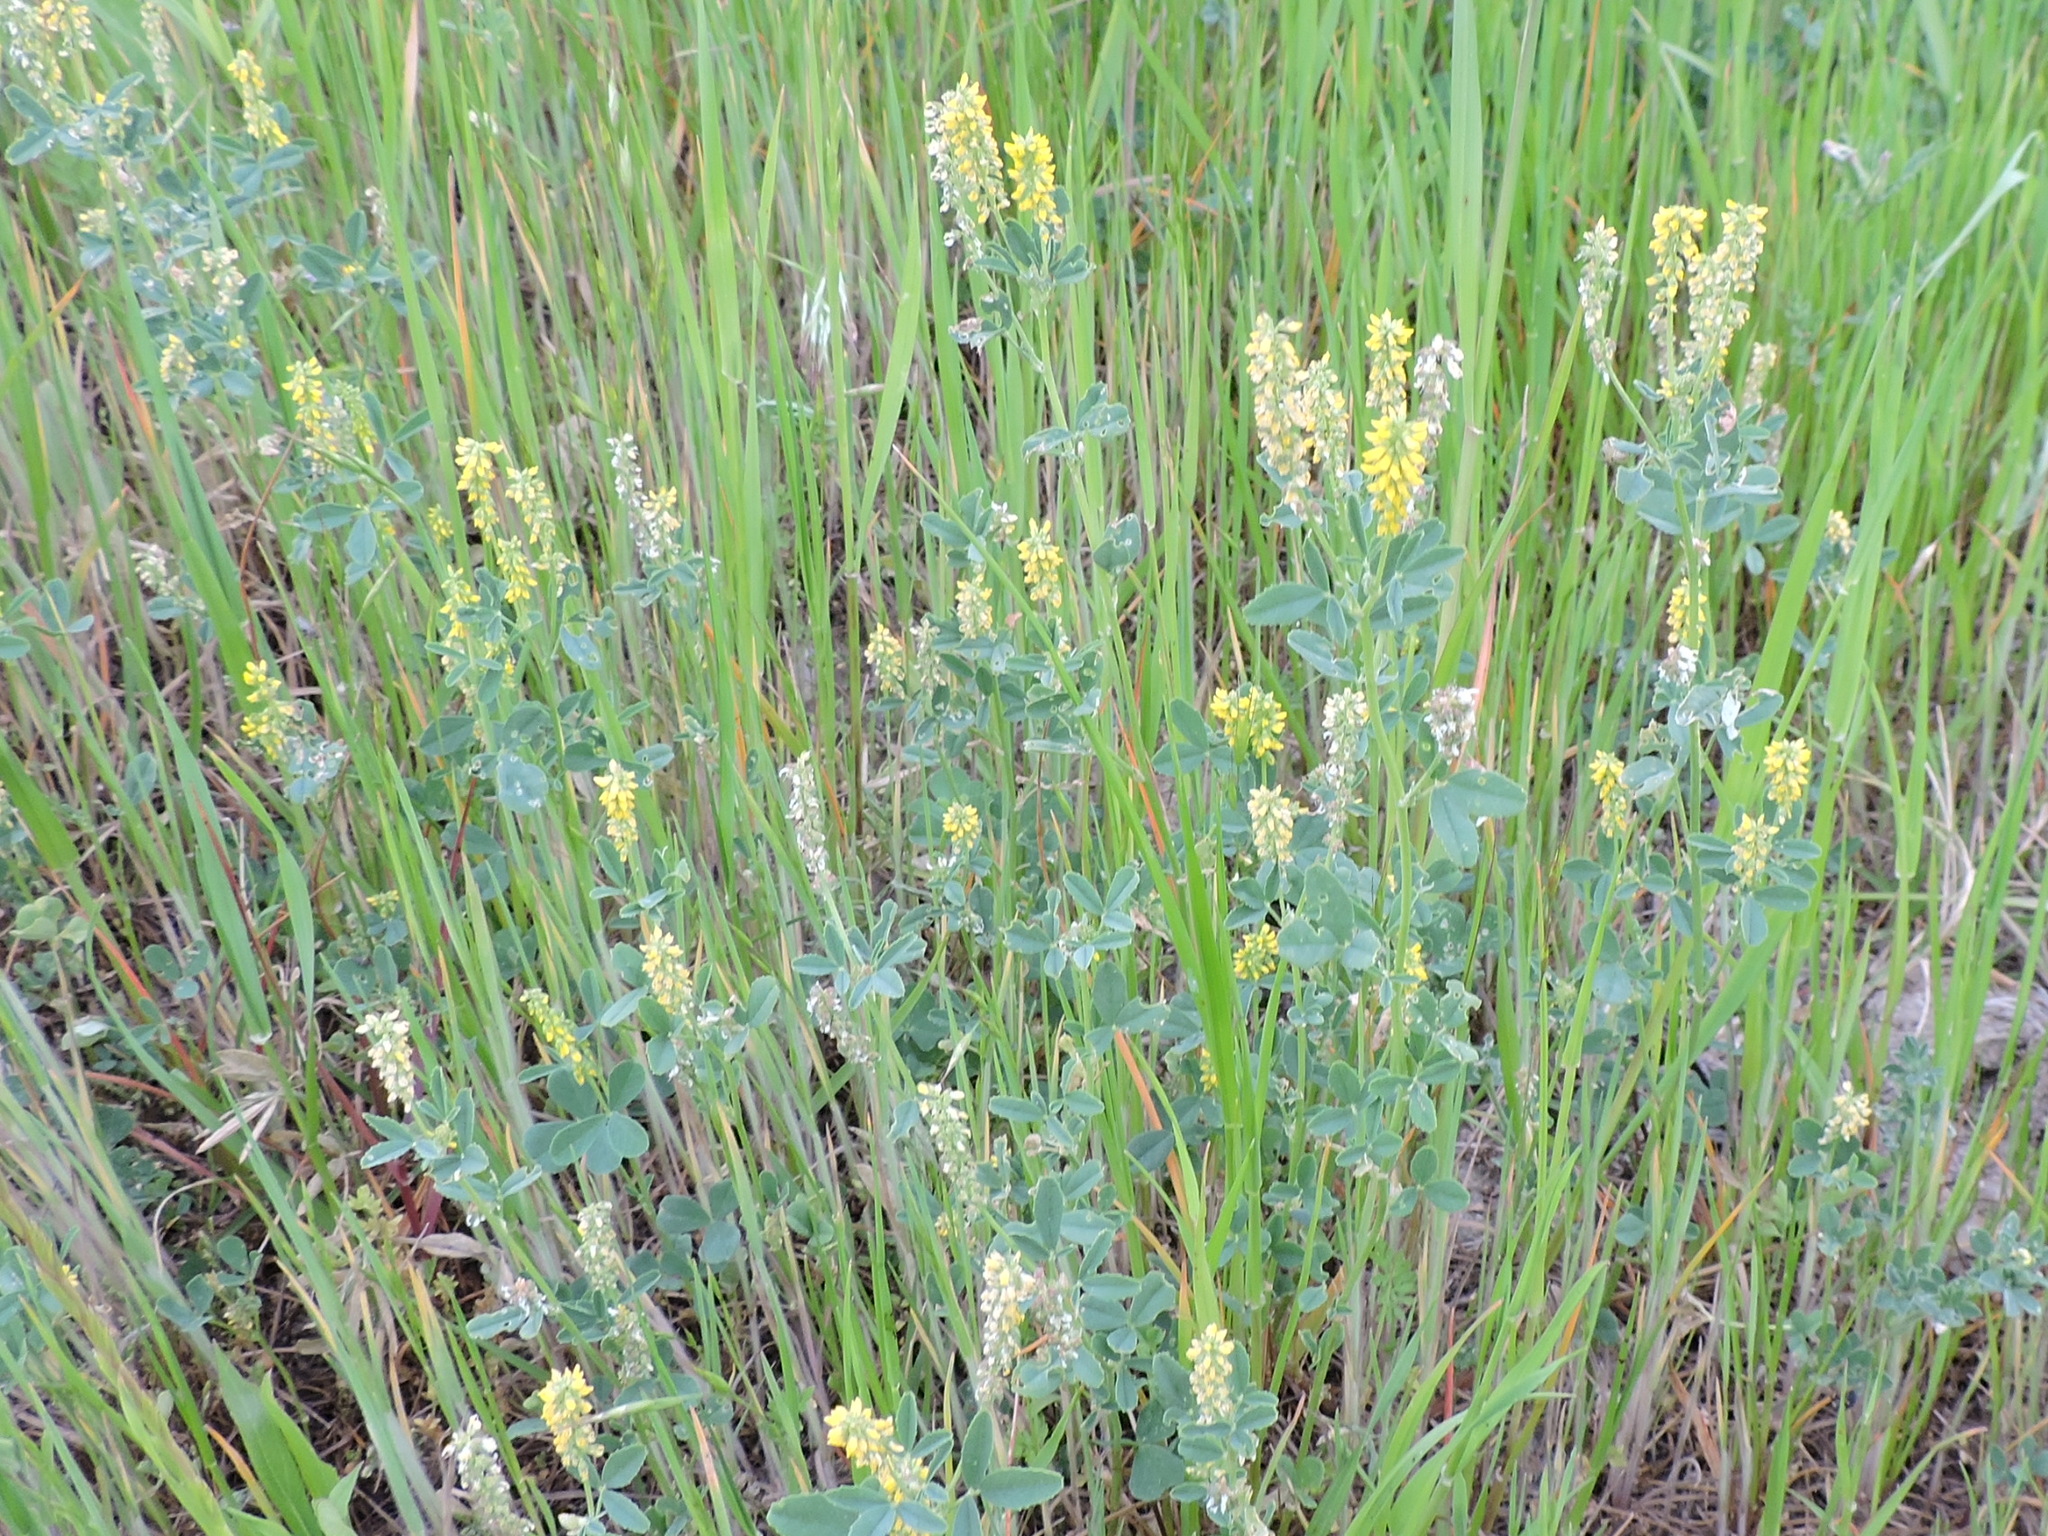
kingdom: Plantae
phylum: Tracheophyta
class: Magnoliopsida
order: Fabales
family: Fabaceae
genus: Melilotus
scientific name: Melilotus indicus
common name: Small melilot
